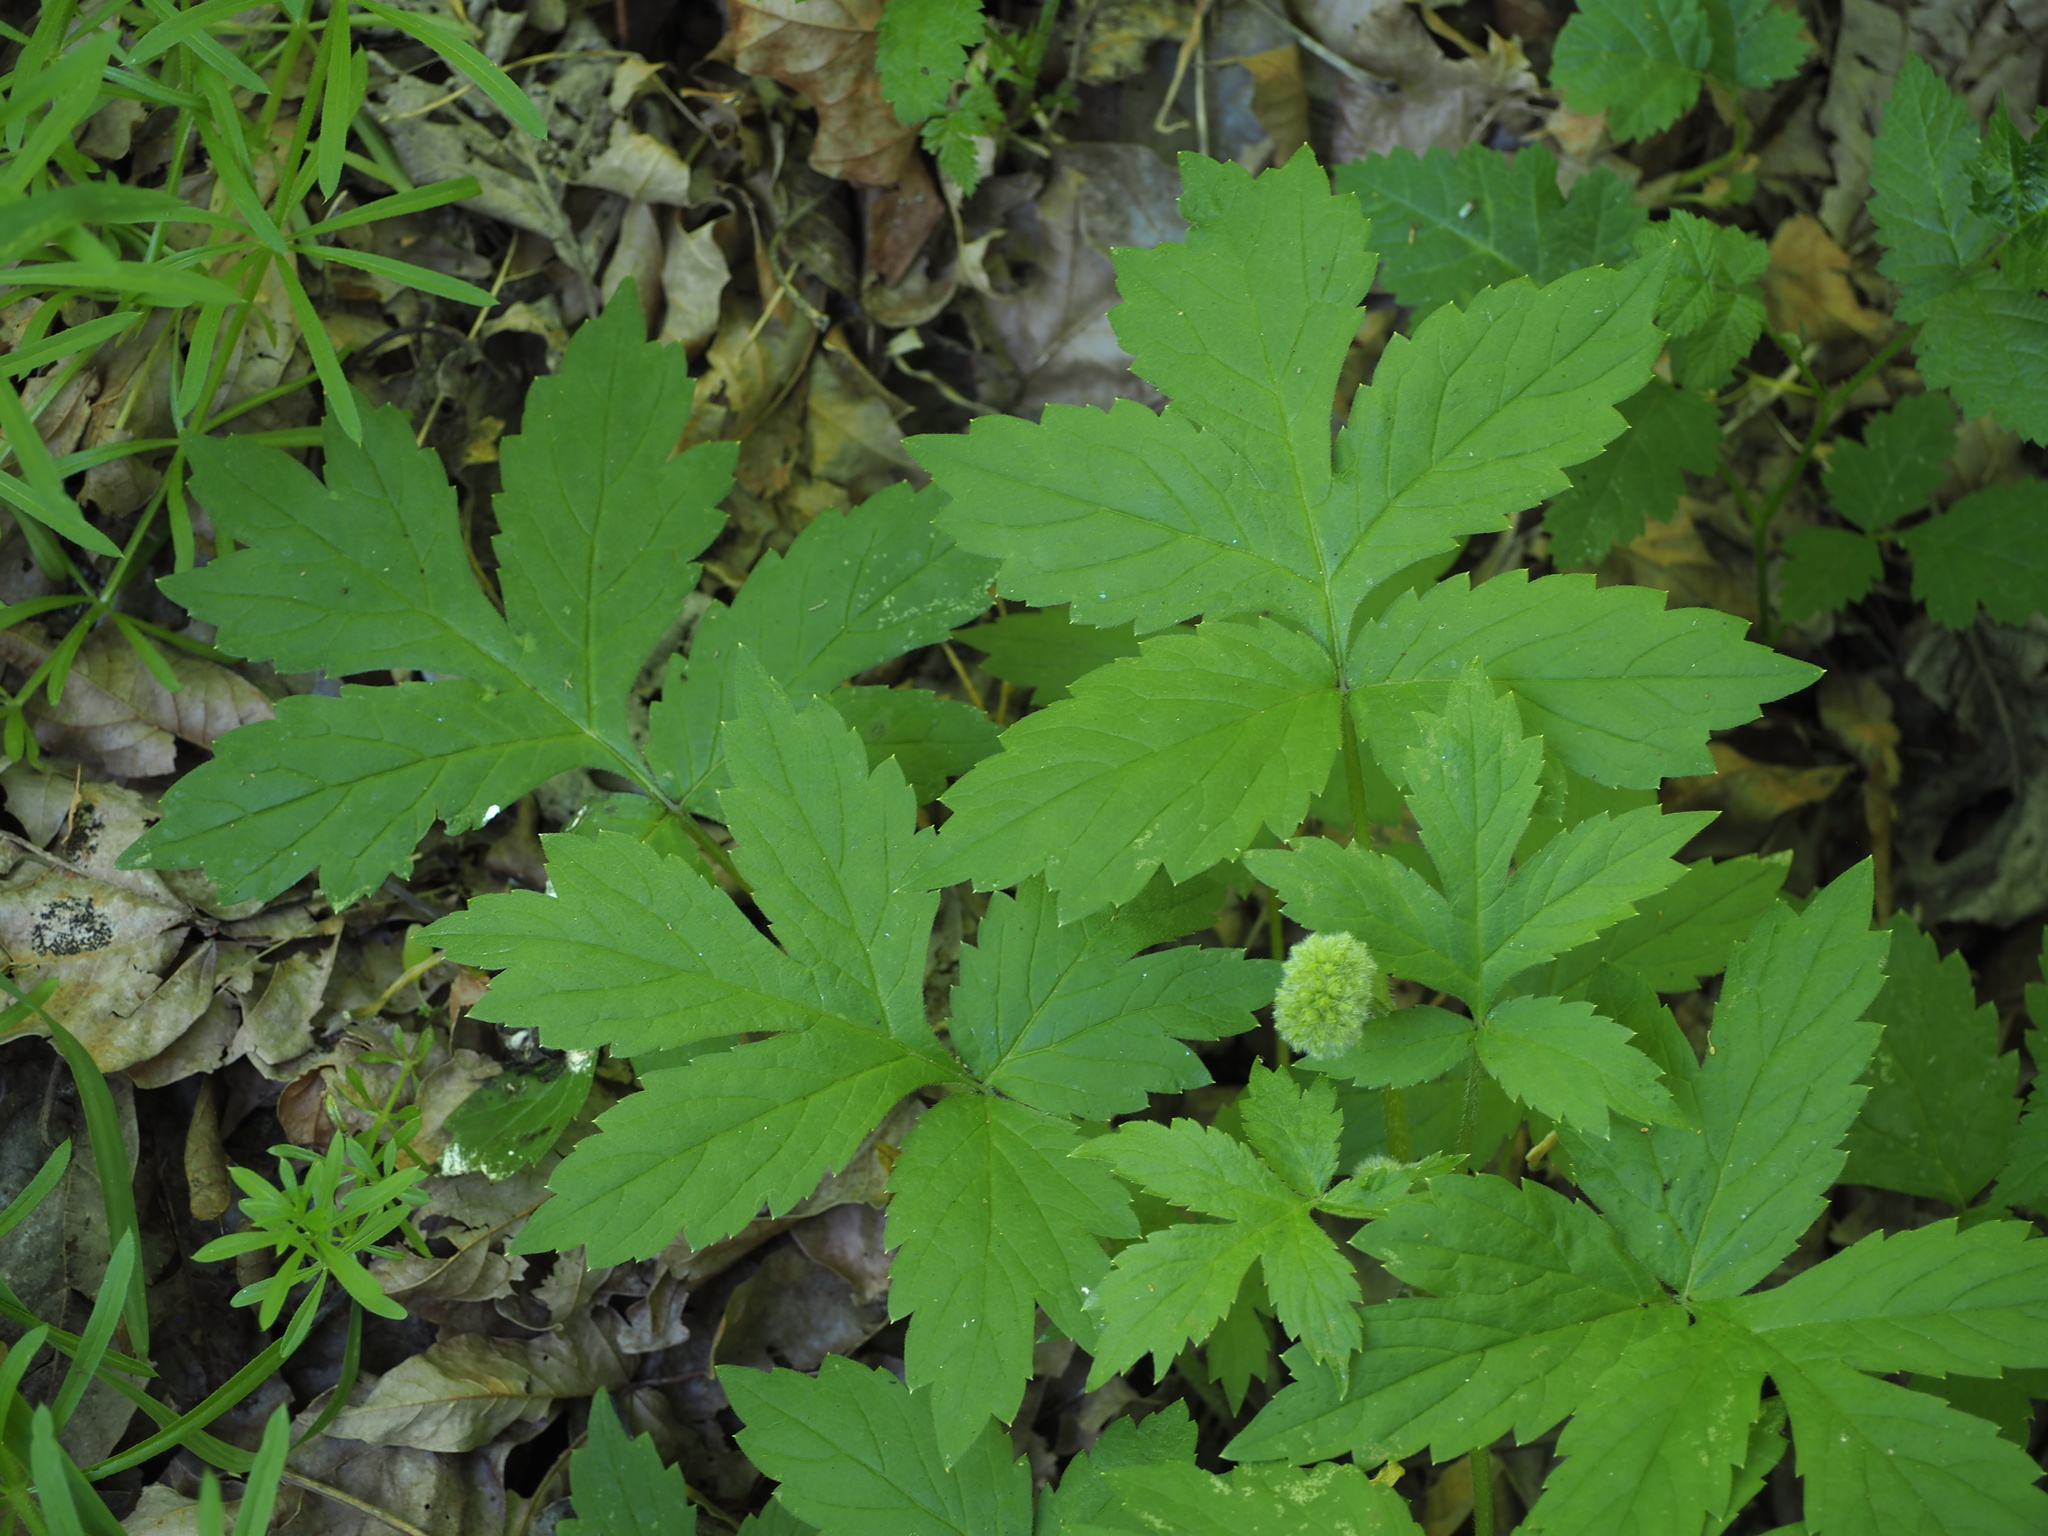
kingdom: Plantae
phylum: Tracheophyta
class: Magnoliopsida
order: Boraginales
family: Hydrophyllaceae
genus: Hydrophyllum
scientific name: Hydrophyllum tenuipes
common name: Pacific waterleaf
